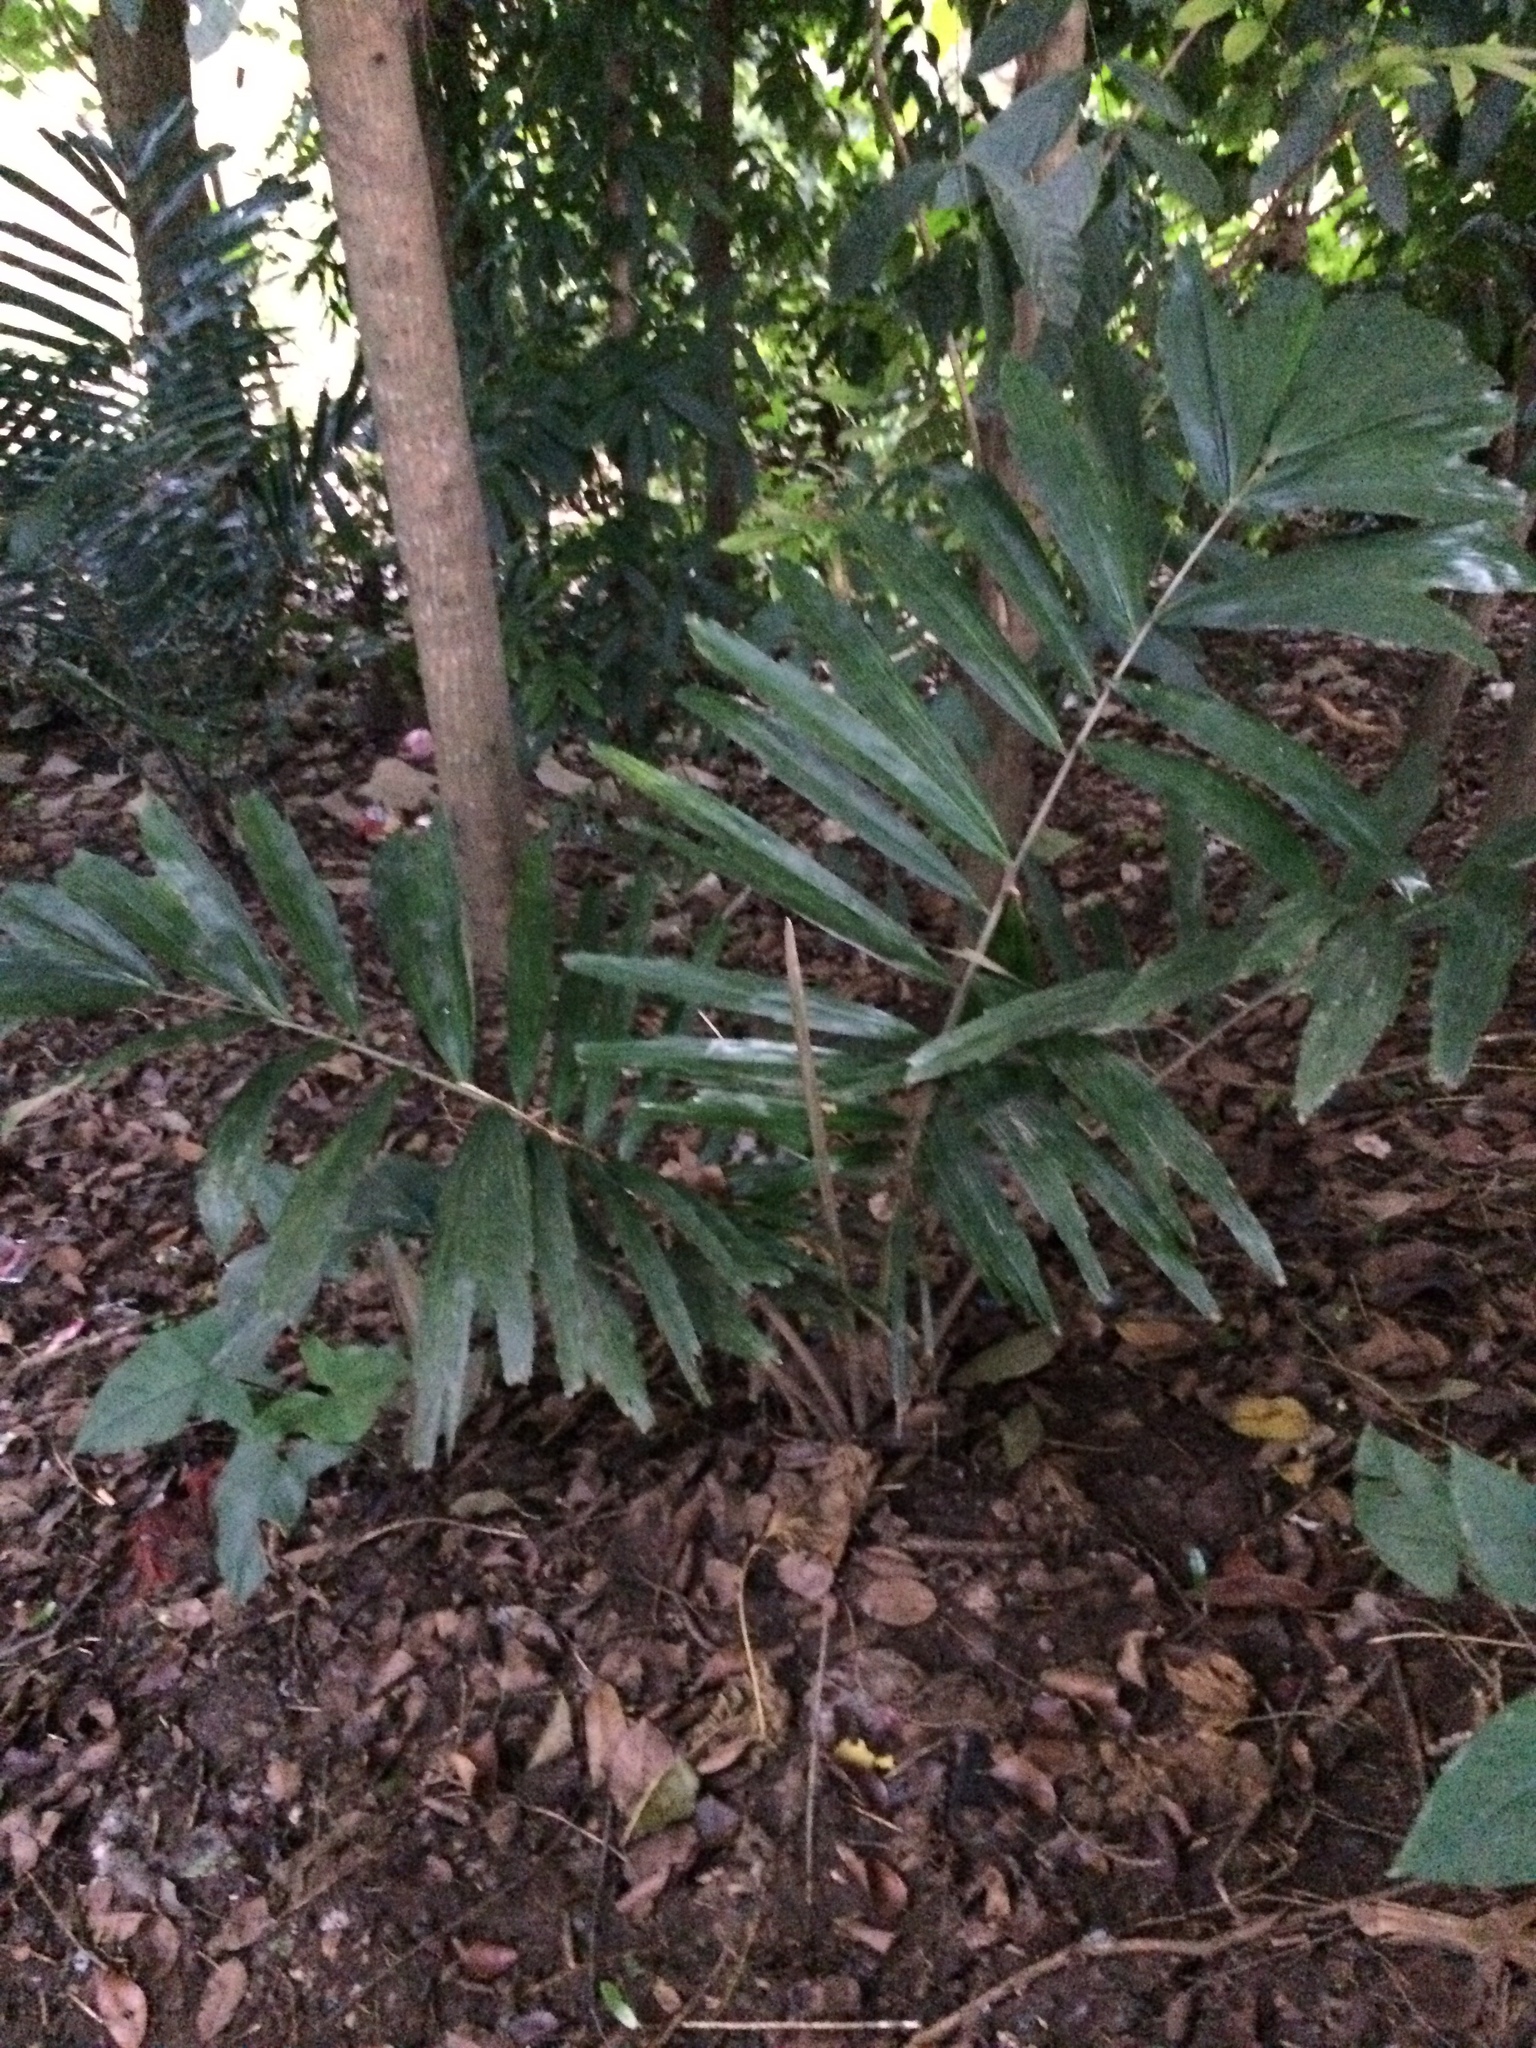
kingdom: Plantae
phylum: Tracheophyta
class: Liliopsida
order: Arecales
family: Arecaceae
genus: Arenga
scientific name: Arenga engleri
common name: Formosan sugar palm
